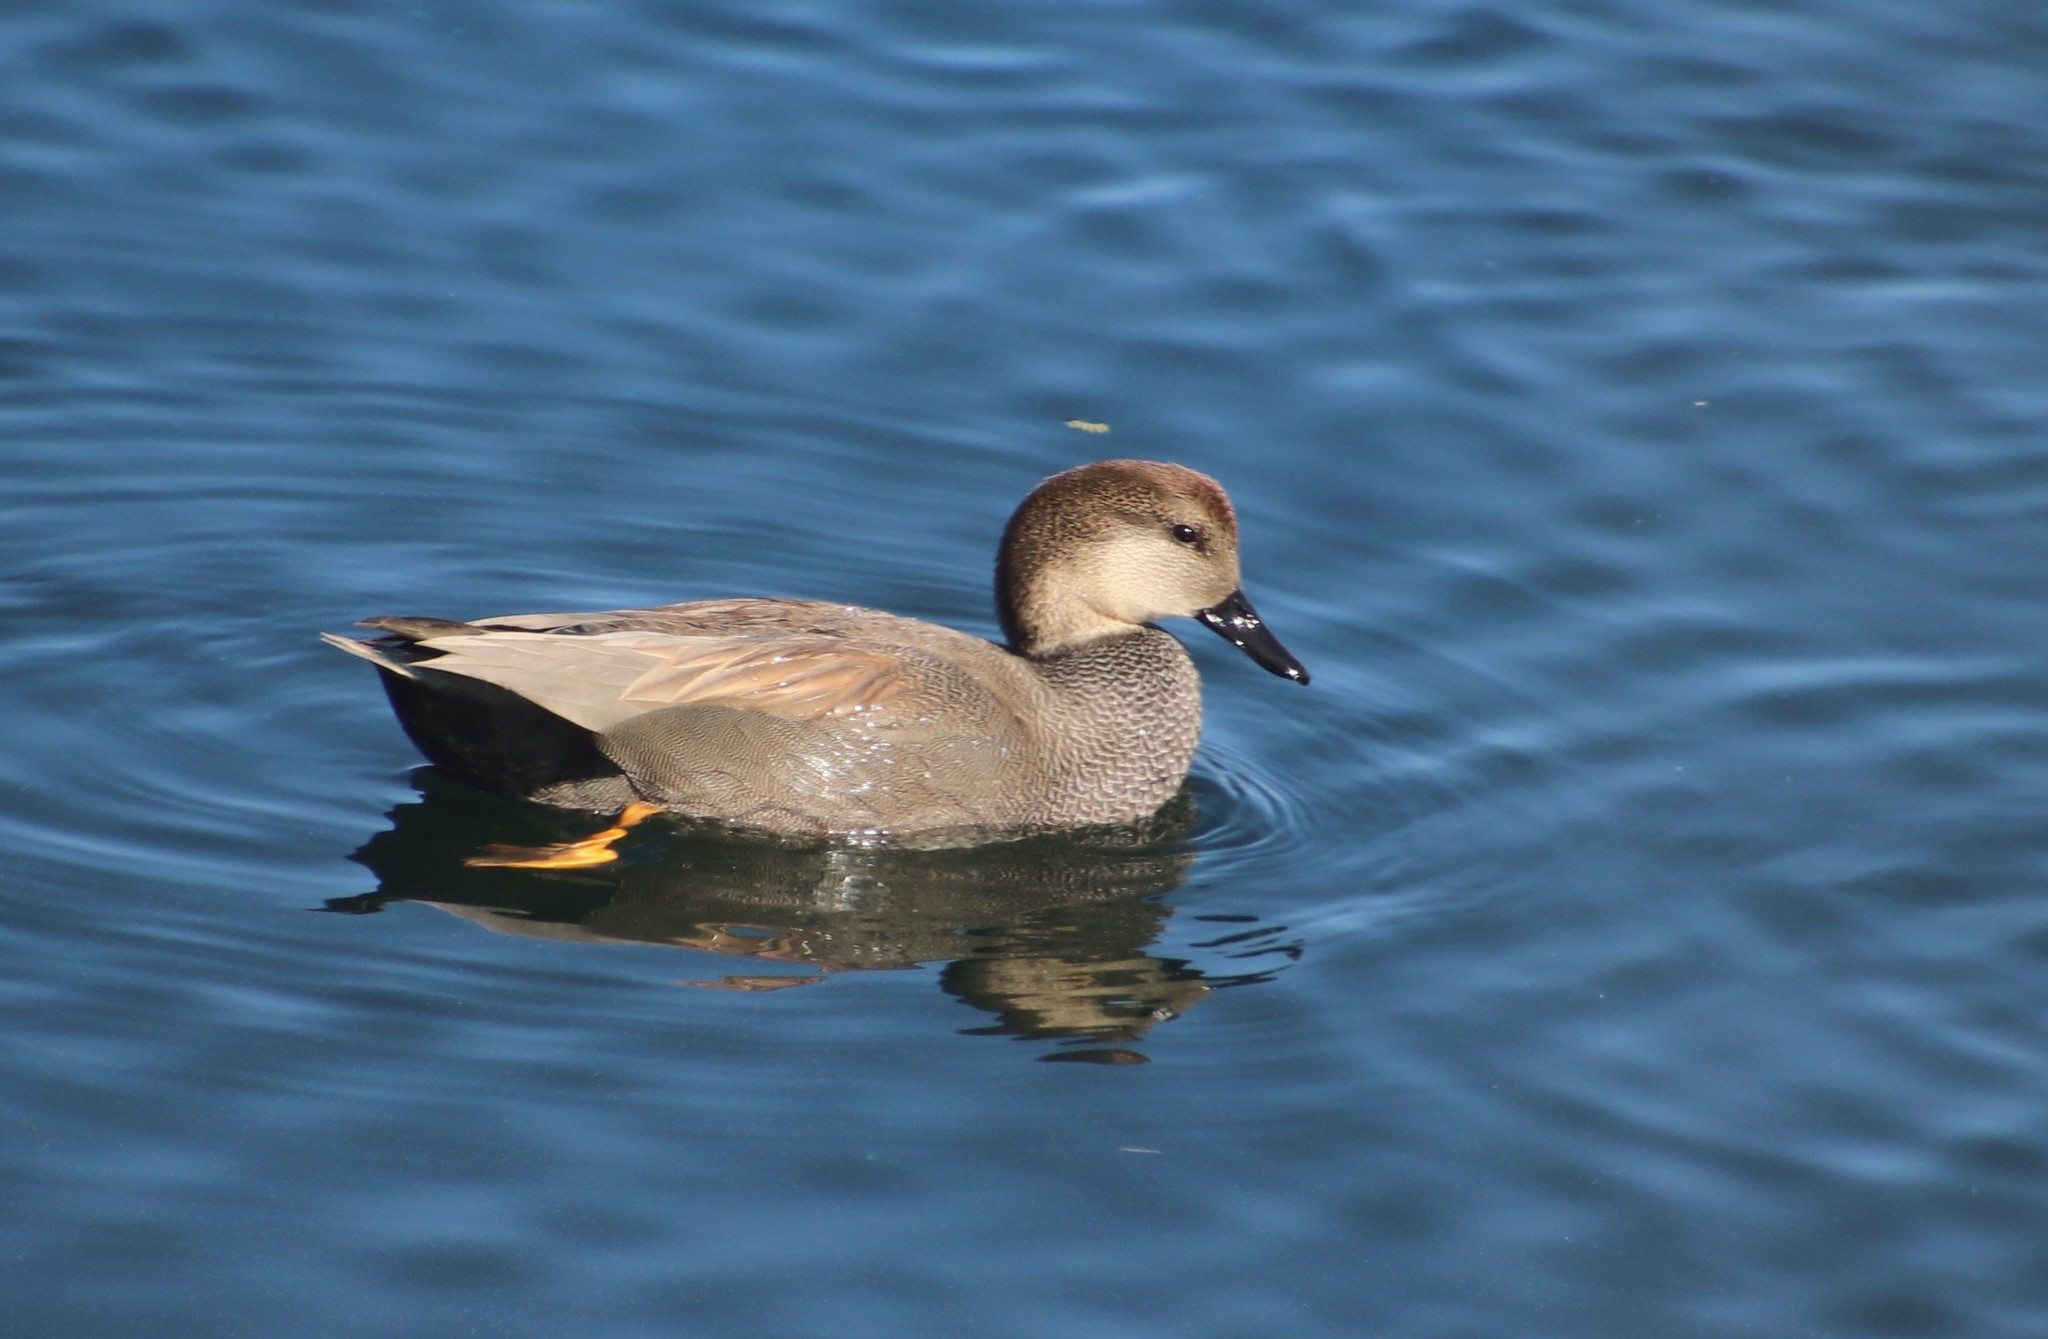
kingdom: Animalia
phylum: Chordata
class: Aves
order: Anseriformes
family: Anatidae
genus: Mareca
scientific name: Mareca strepera
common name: Gadwall
